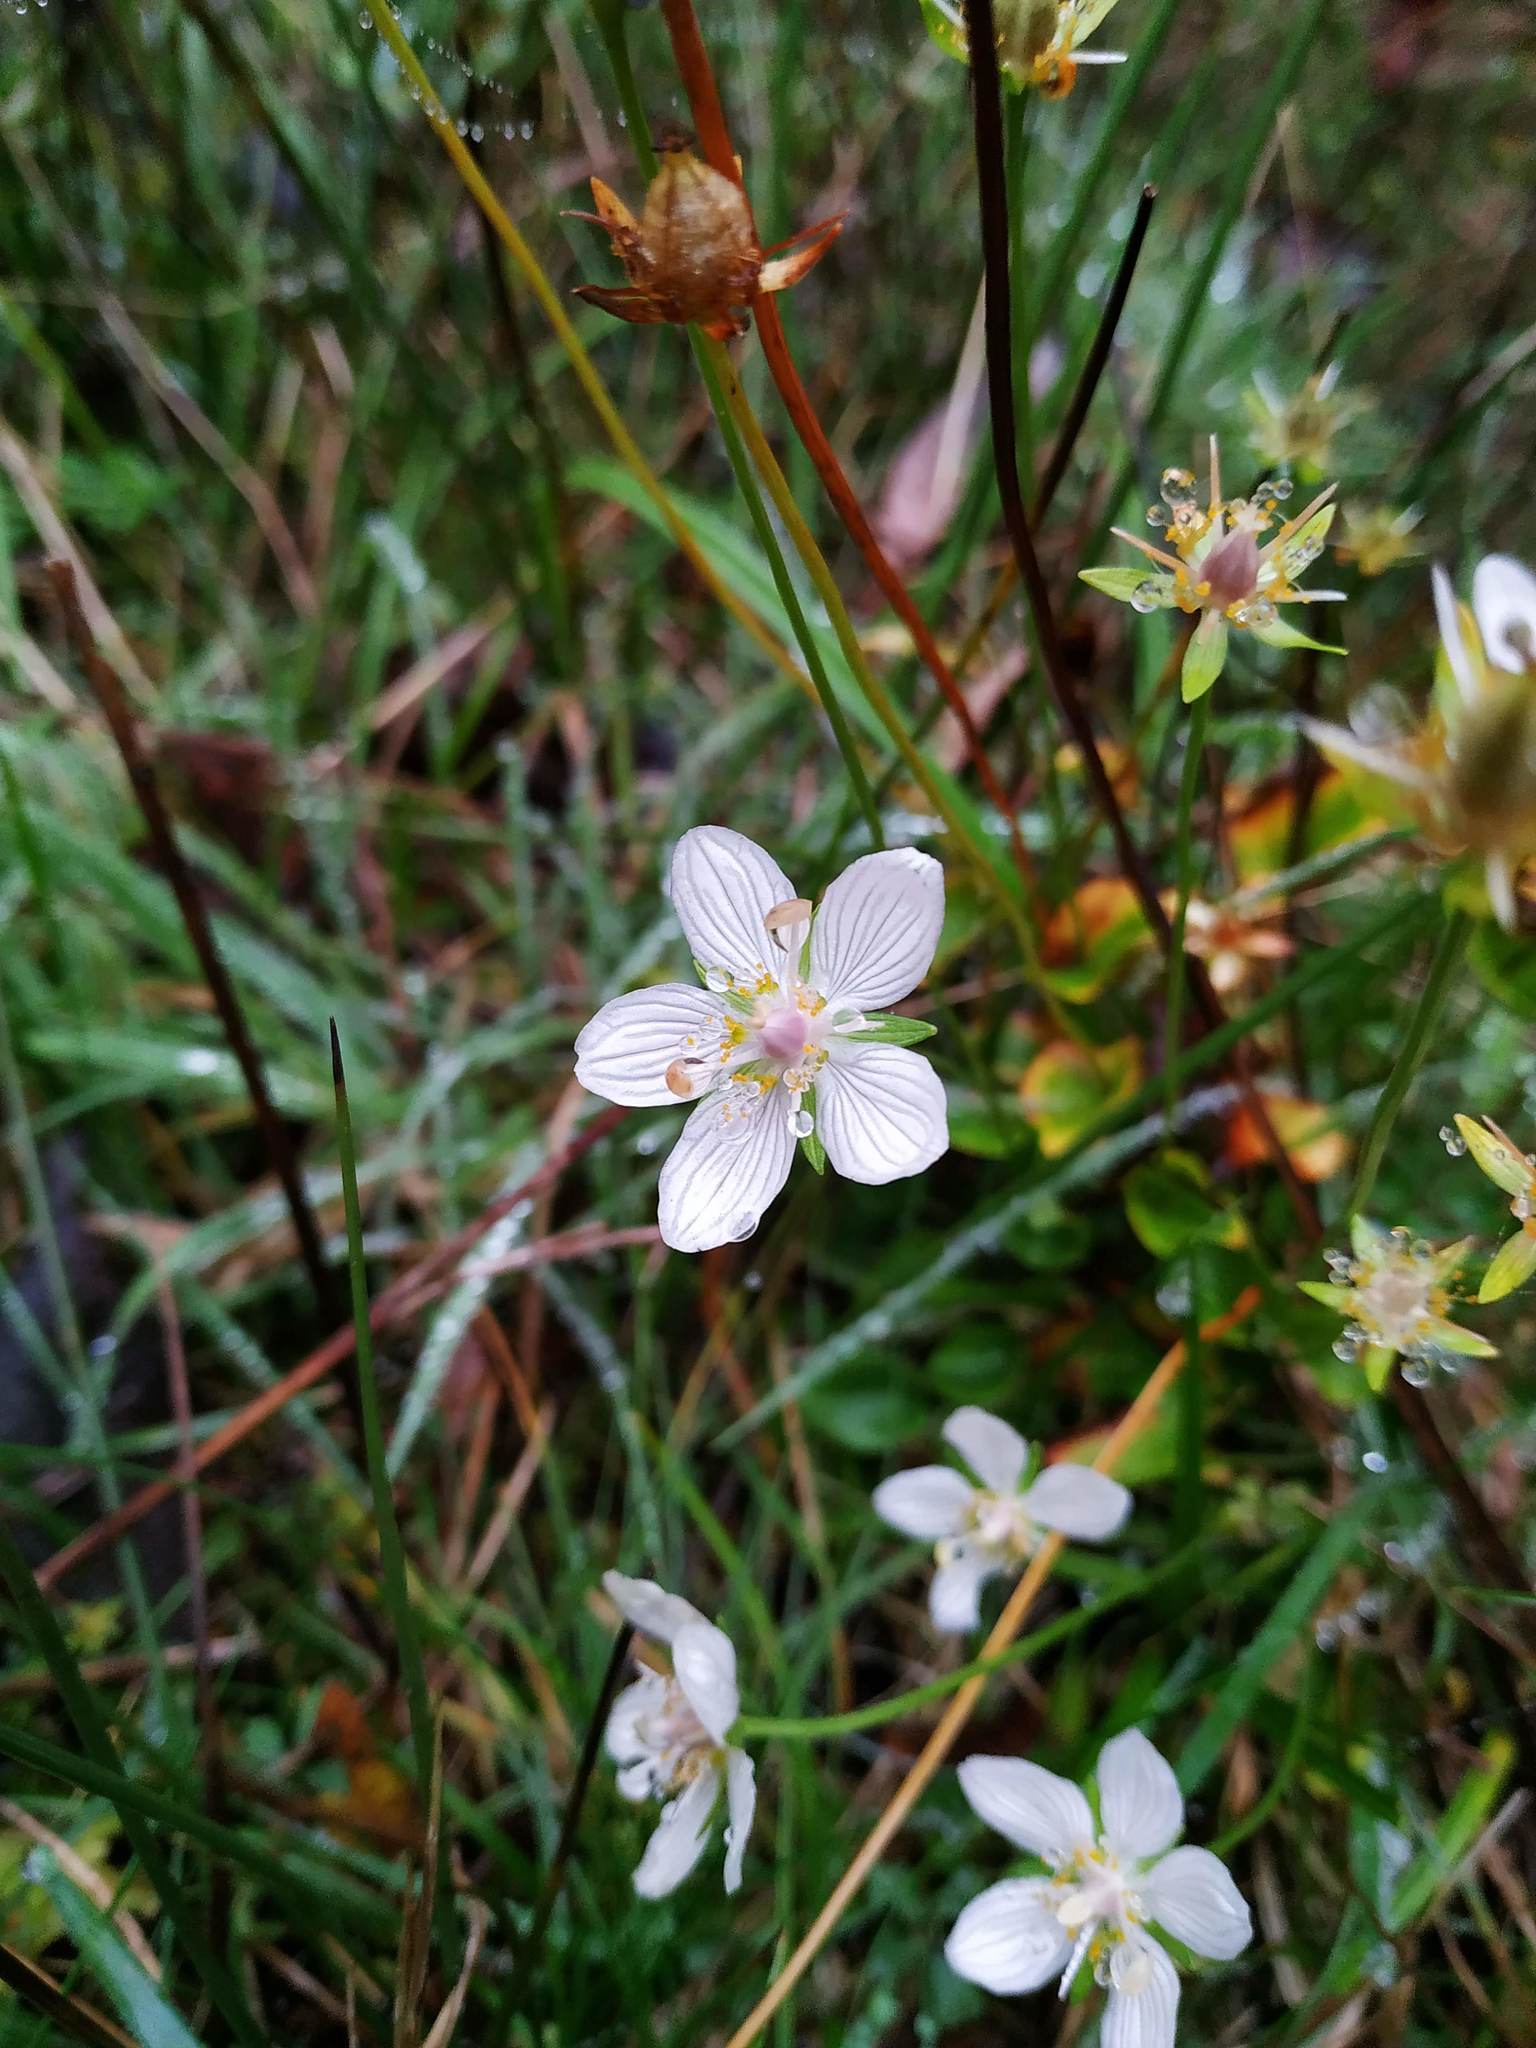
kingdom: Plantae
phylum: Tracheophyta
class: Magnoliopsida
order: Celastrales
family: Parnassiaceae
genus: Parnassia
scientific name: Parnassia palustris
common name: Grass-of-parnassus
